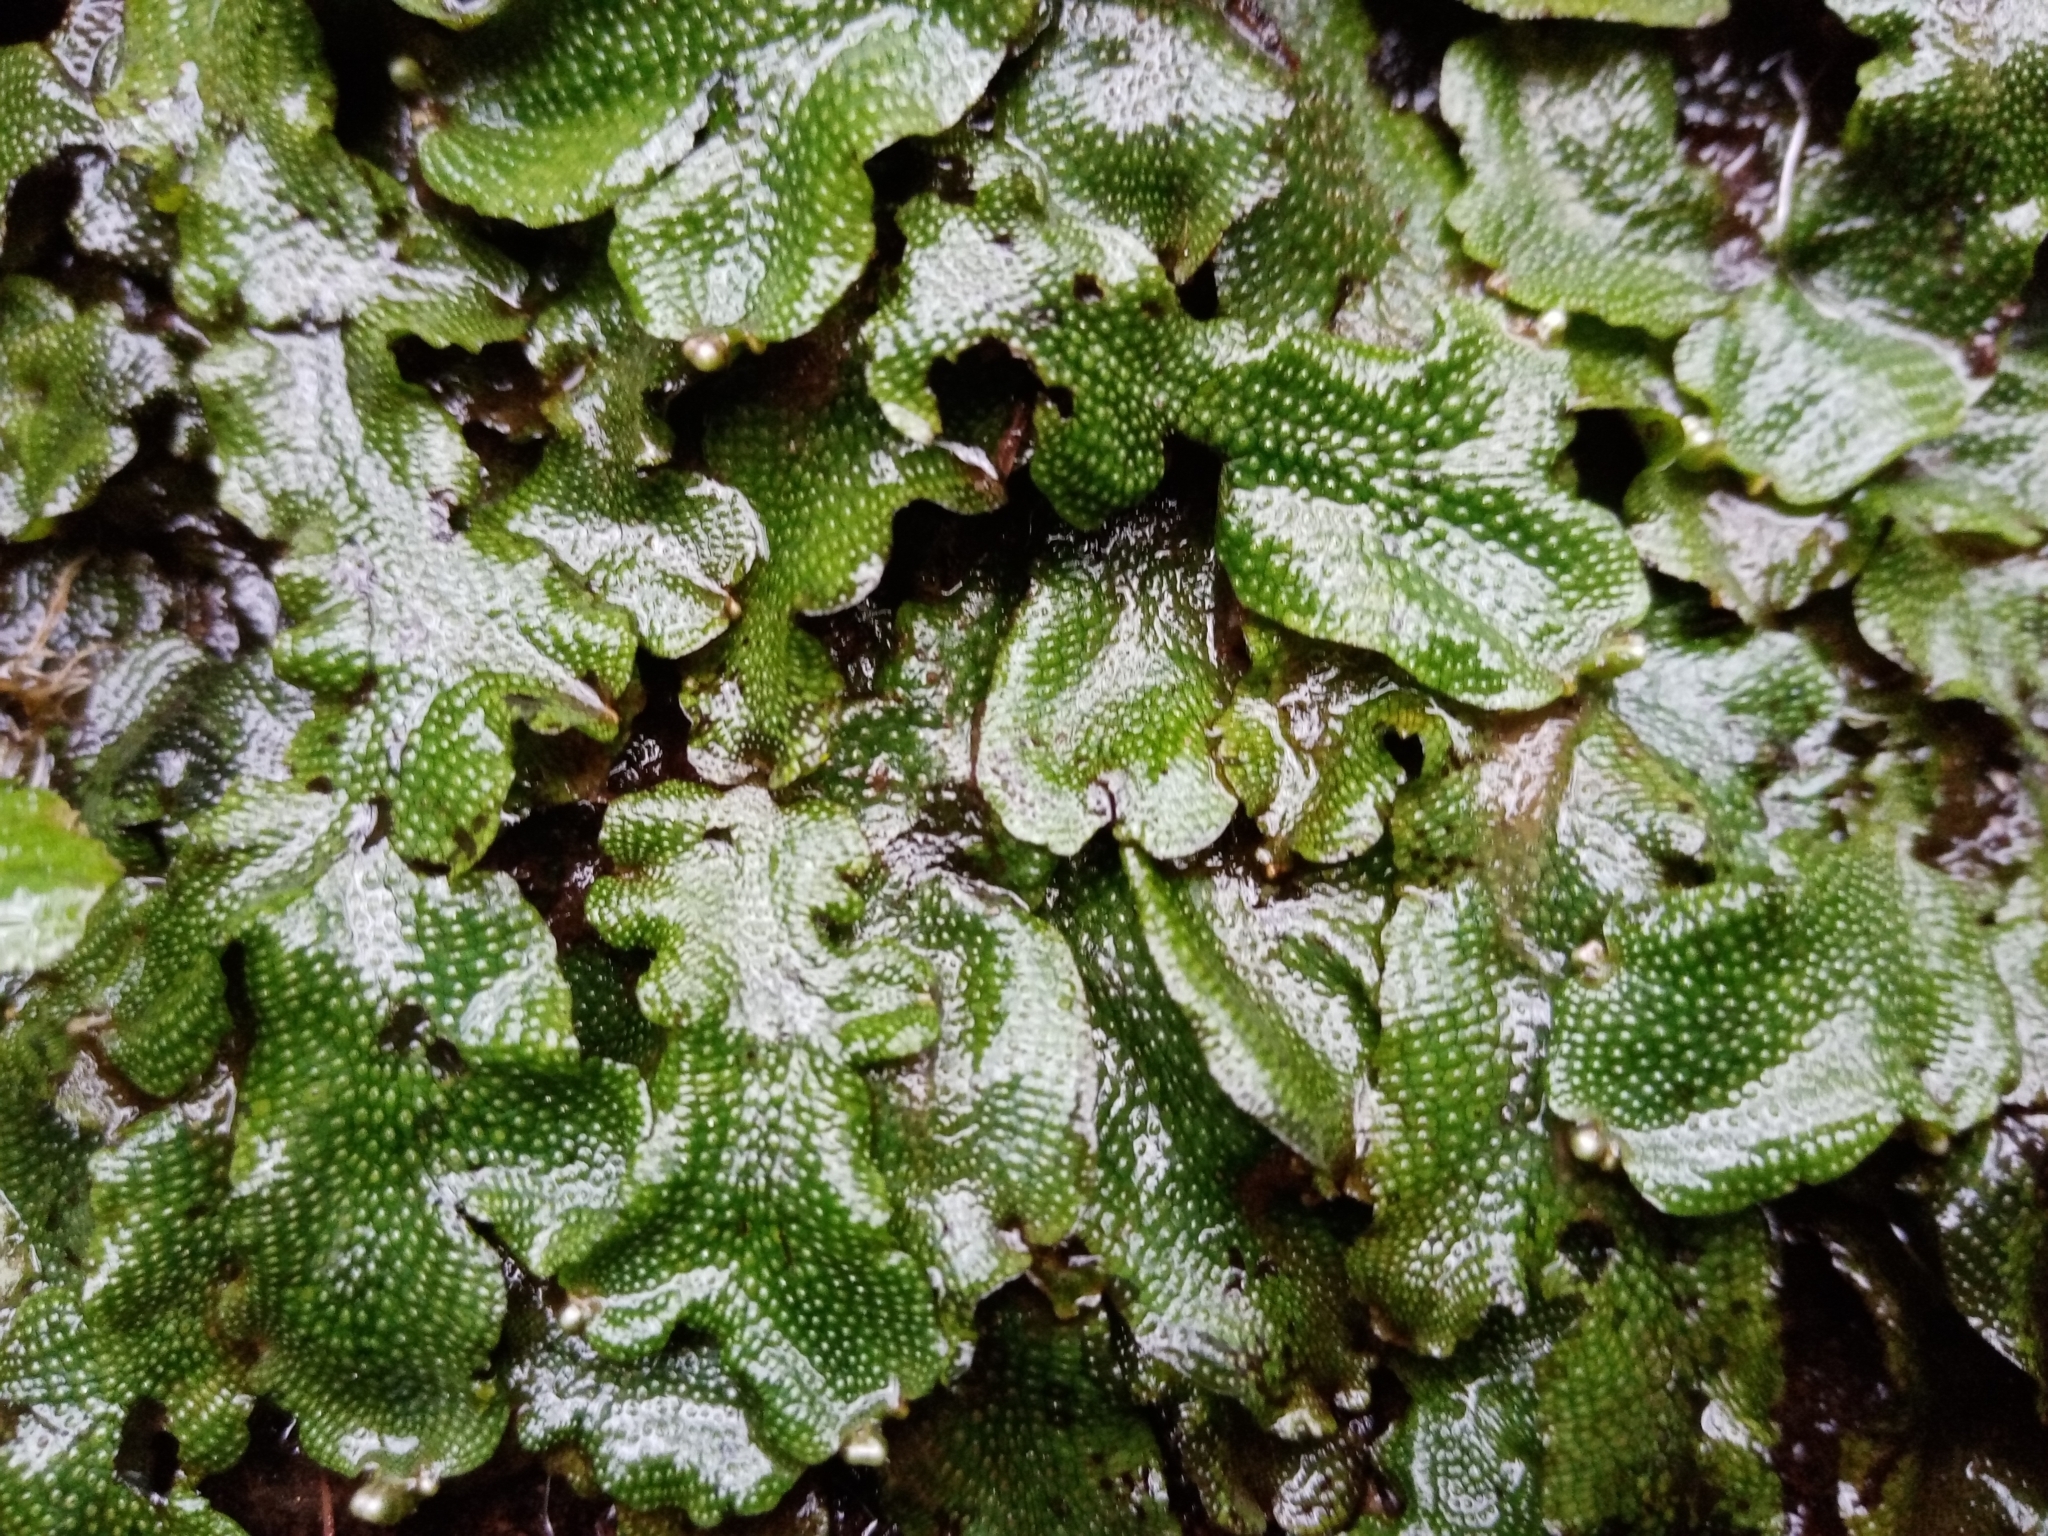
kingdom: Plantae
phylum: Marchantiophyta
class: Marchantiopsida
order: Marchantiales
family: Conocephalaceae
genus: Conocephalum
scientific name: Conocephalum conicum
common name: Great scented liverwort
